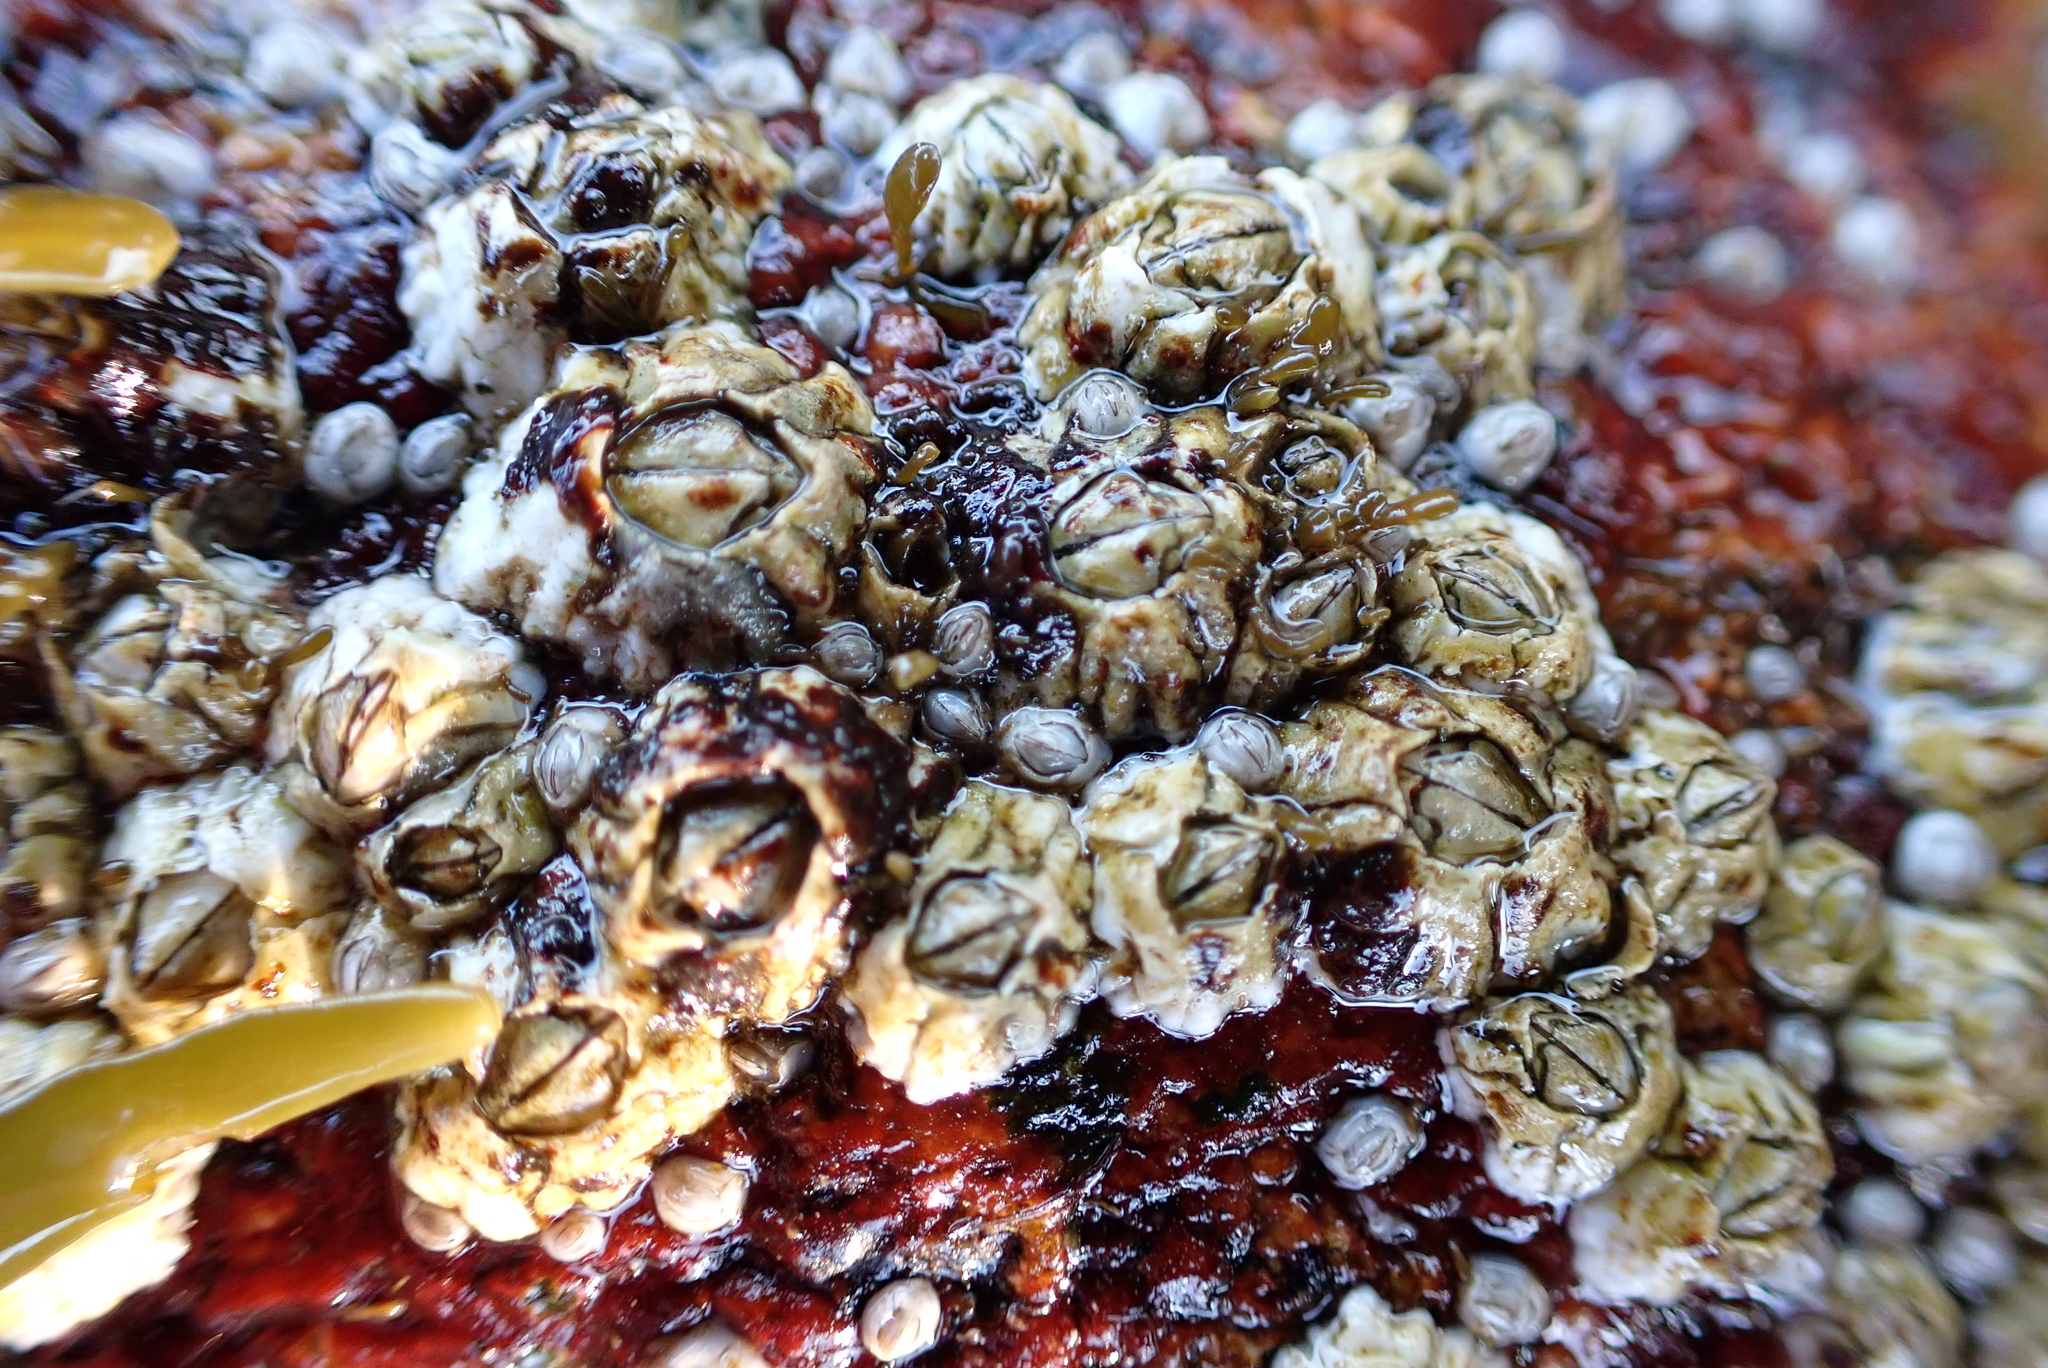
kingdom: Animalia
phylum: Arthropoda
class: Maxillopoda
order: Sessilia
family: Archaeobalanidae
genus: Semibalanus
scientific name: Semibalanus balanoides
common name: Acorn barnacle
